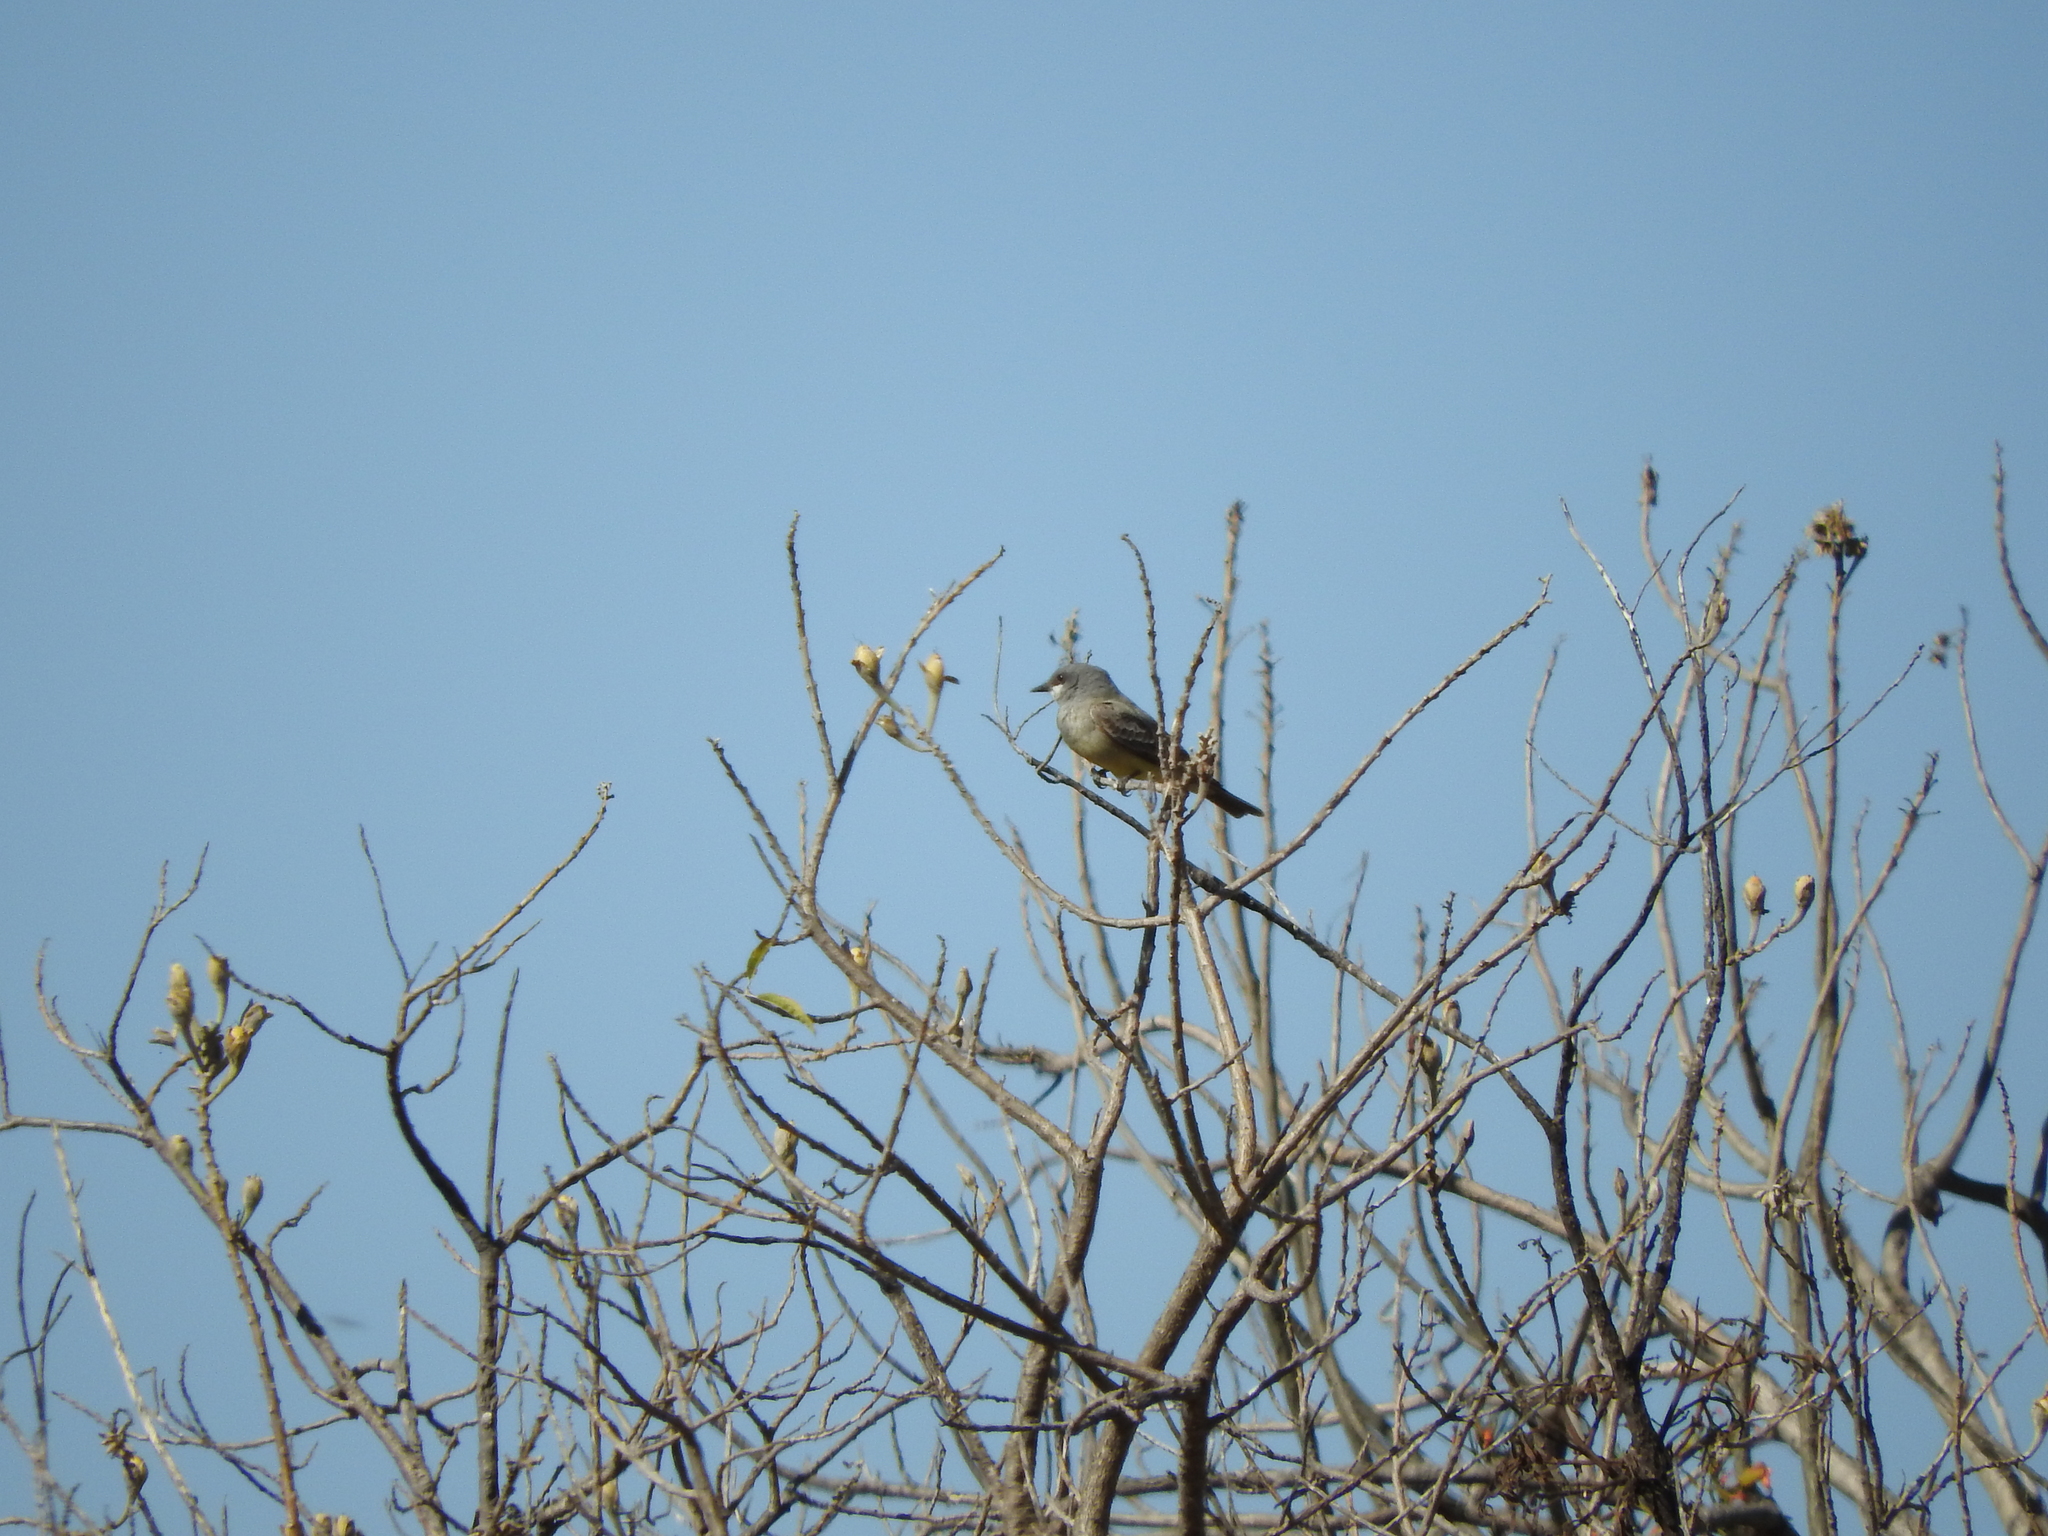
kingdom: Animalia
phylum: Chordata
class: Aves
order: Passeriformes
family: Tyrannidae
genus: Tyrannus
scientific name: Tyrannus vociferans
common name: Cassin's kingbird
